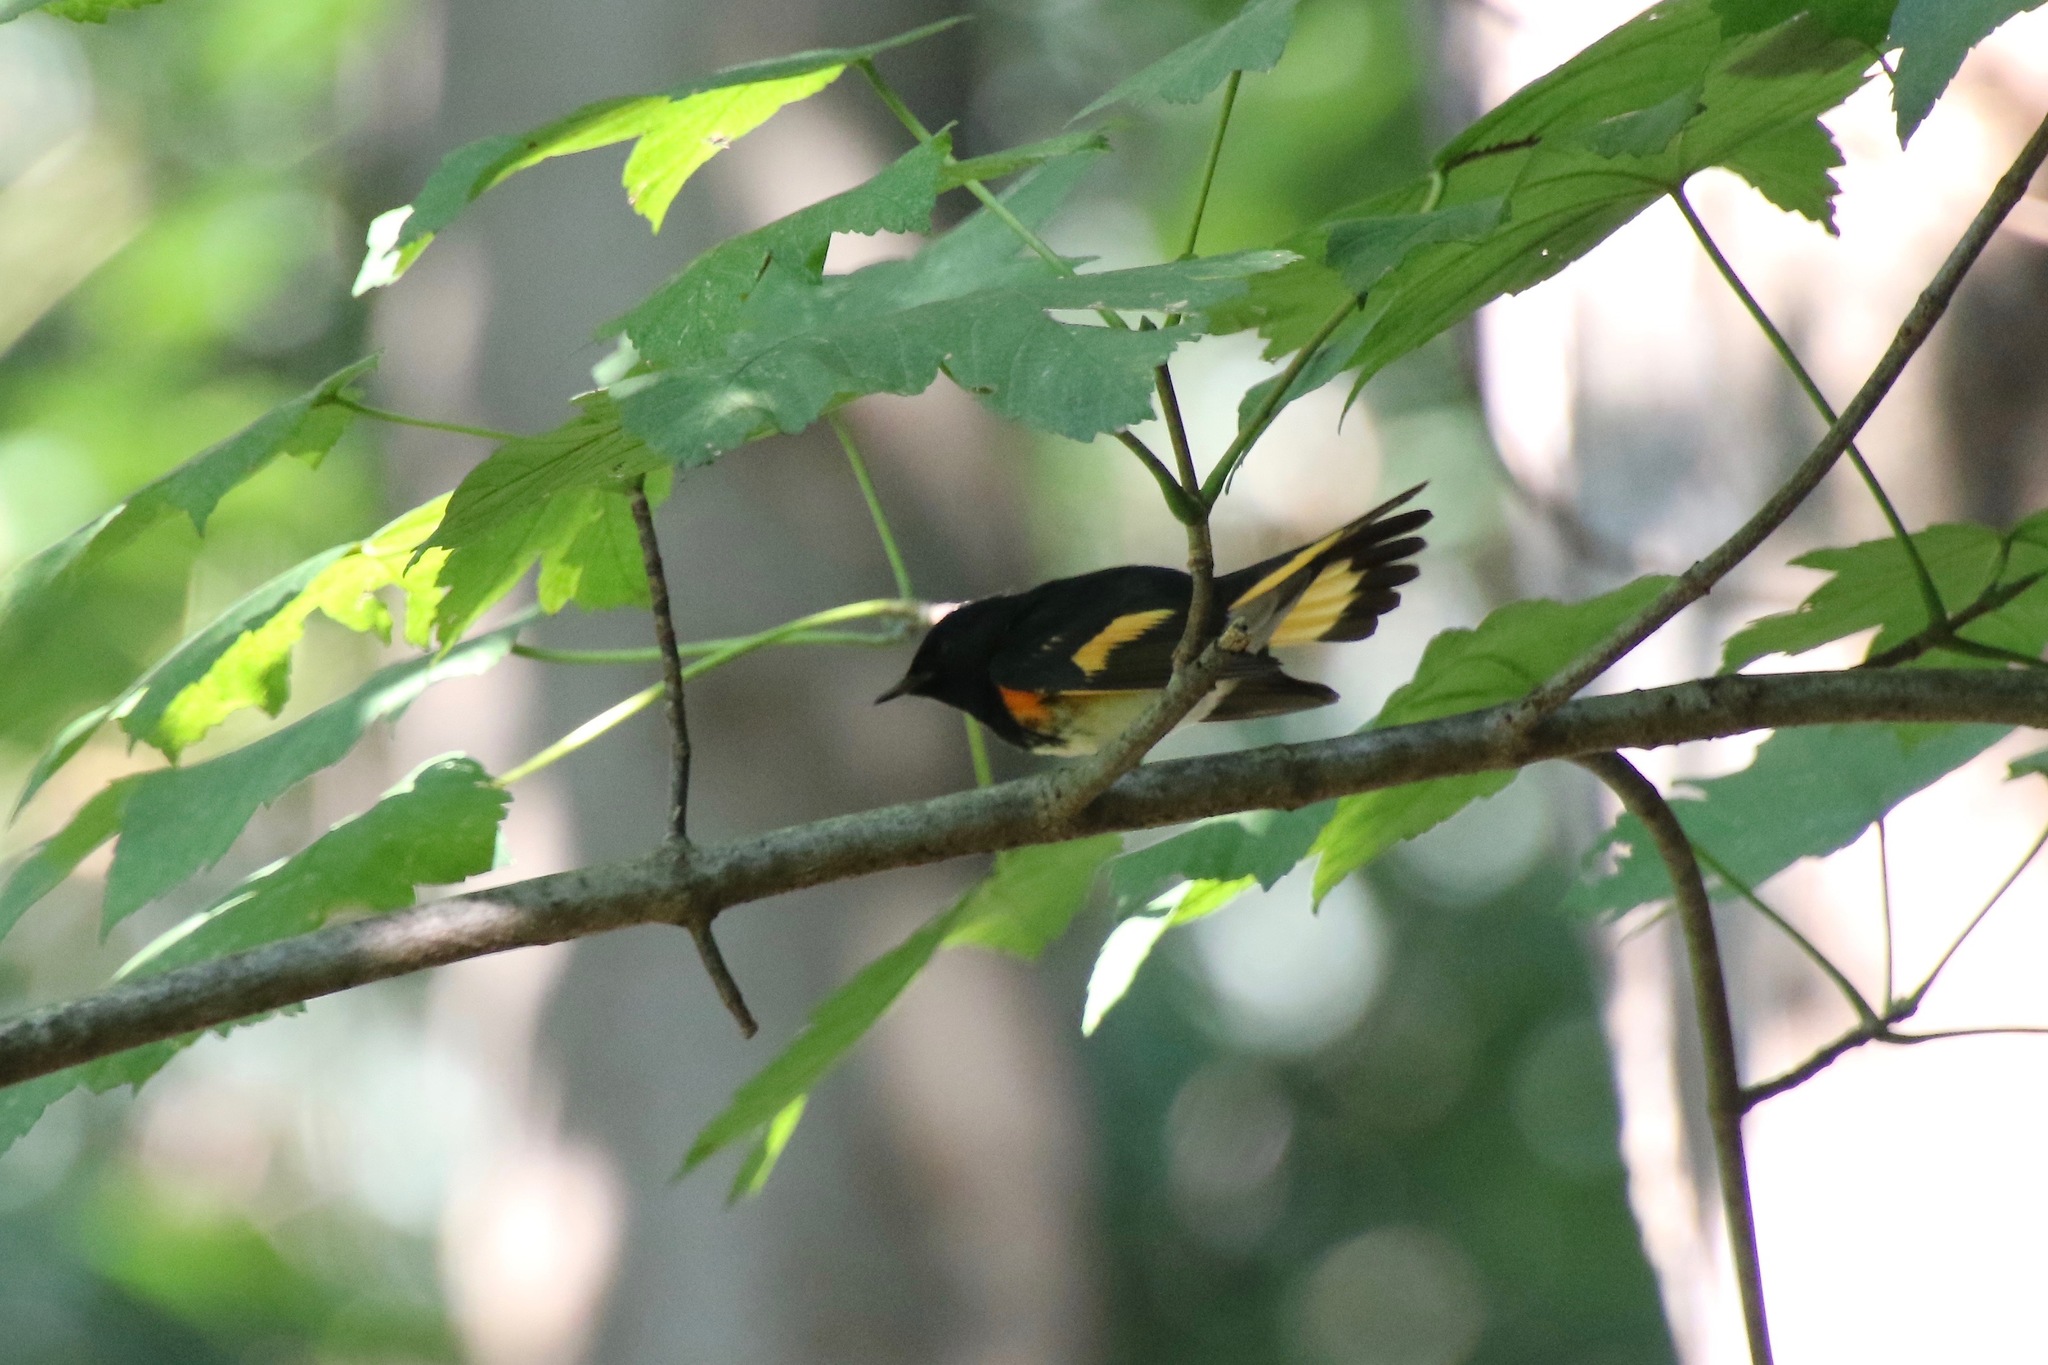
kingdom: Animalia
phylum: Chordata
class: Aves
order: Passeriformes
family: Parulidae
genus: Setophaga
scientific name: Setophaga ruticilla
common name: American redstart
